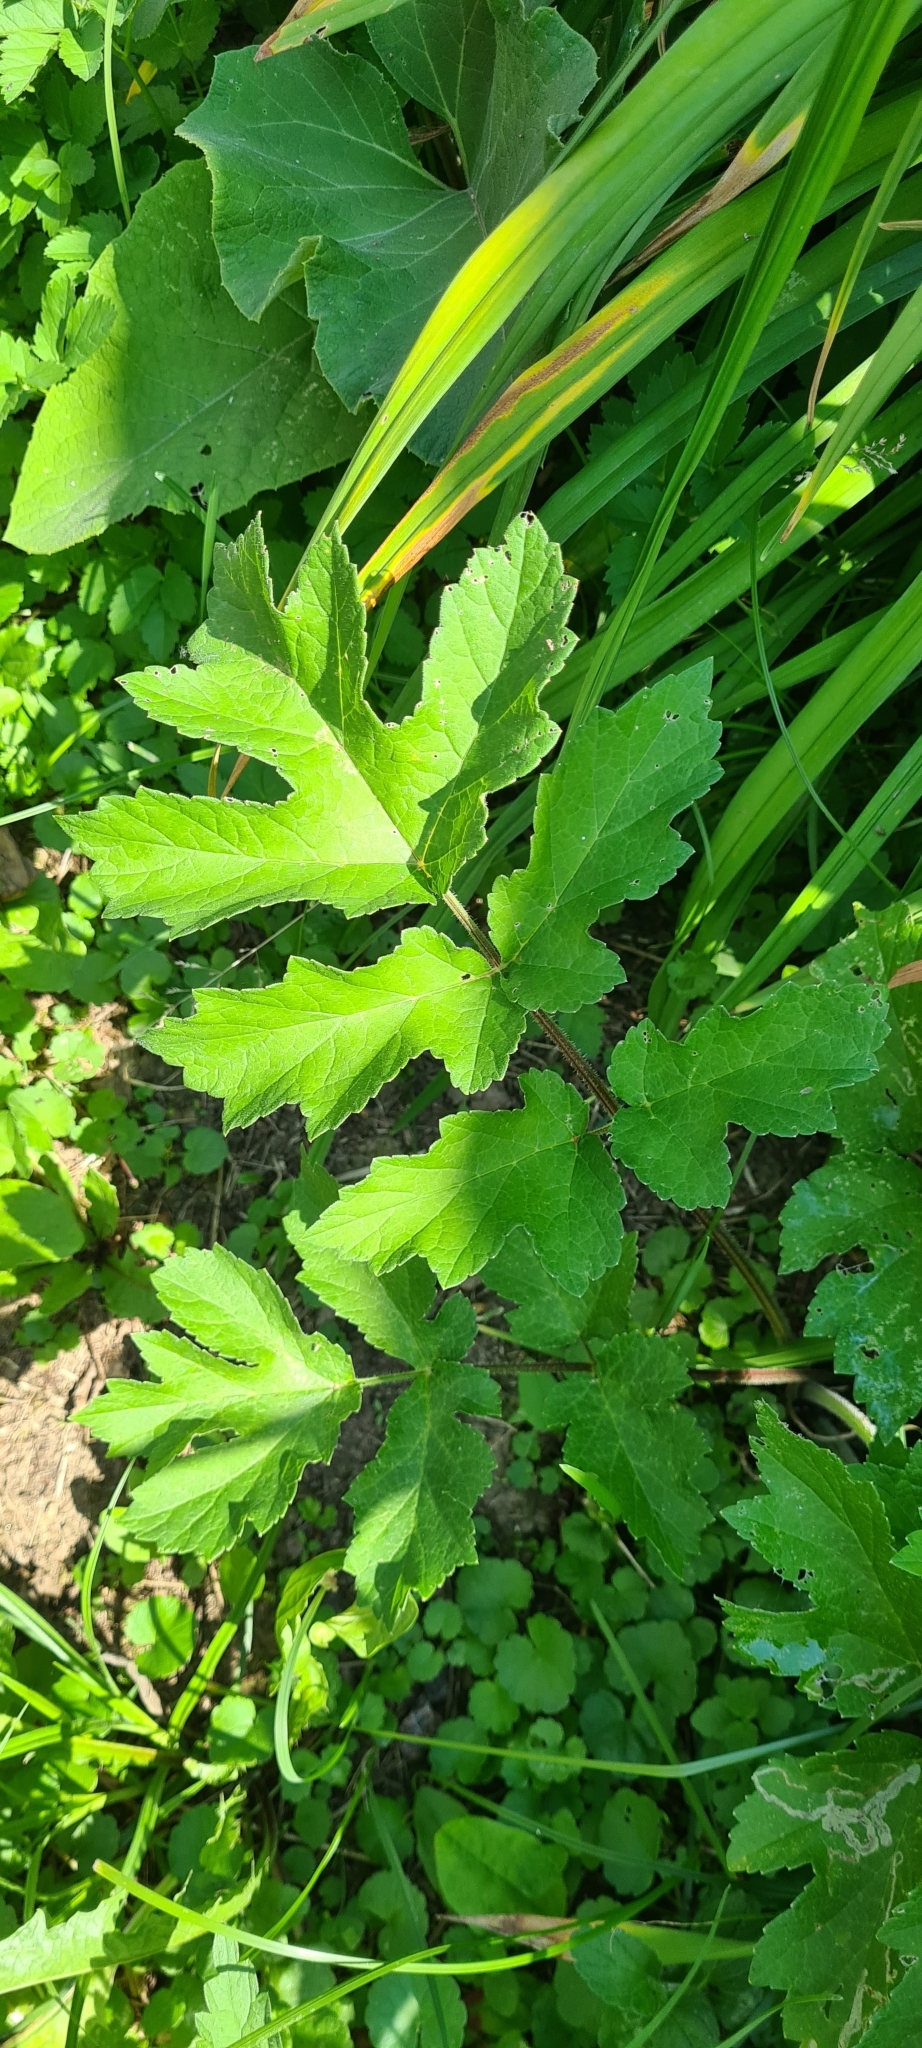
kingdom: Plantae
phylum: Tracheophyta
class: Magnoliopsida
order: Apiales
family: Apiaceae
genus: Heracleum
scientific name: Heracleum sphondylium
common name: Hogweed
